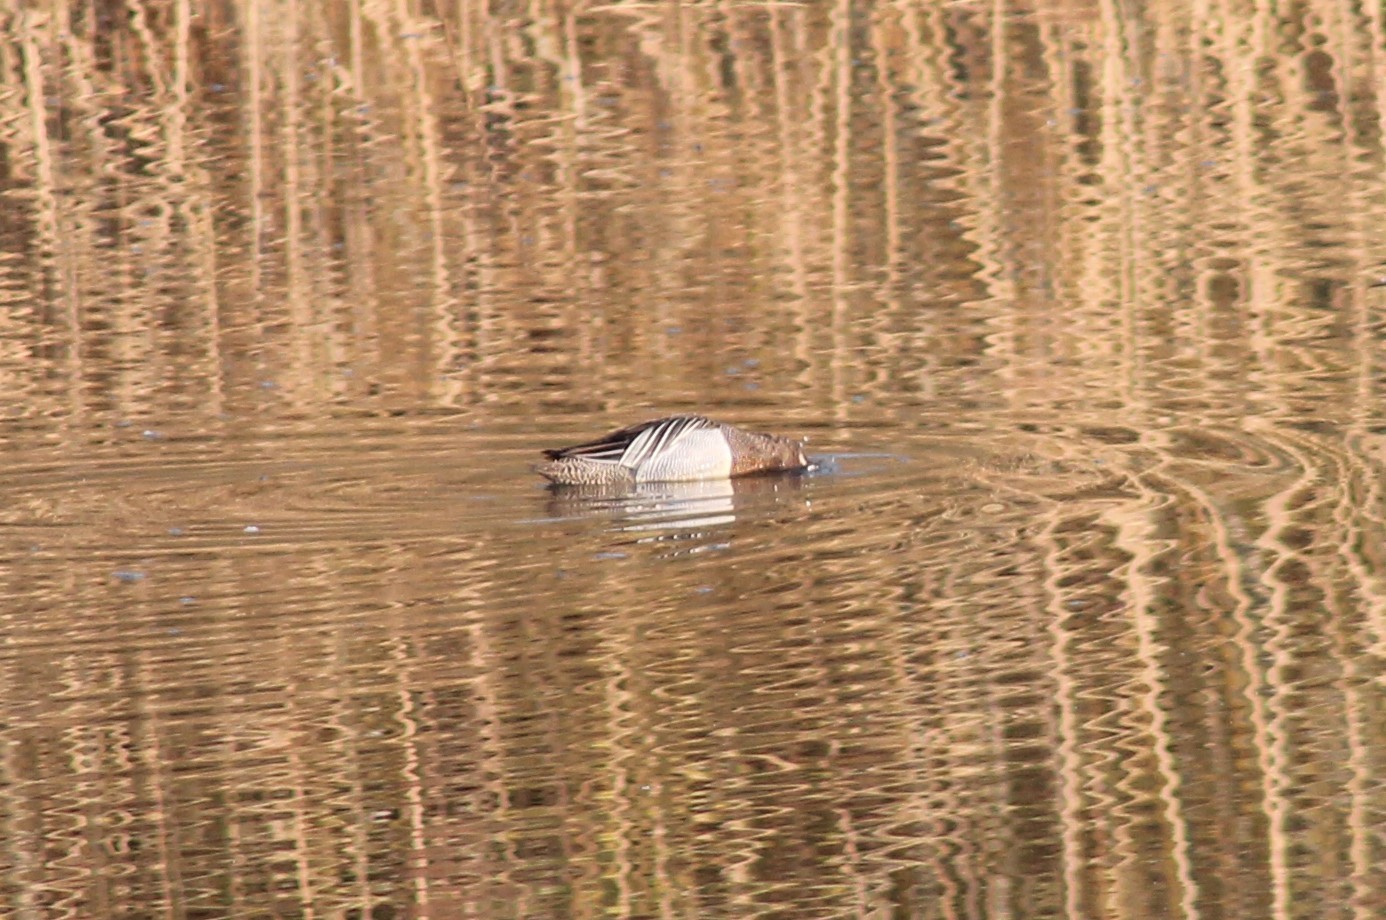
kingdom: Animalia
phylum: Chordata
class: Aves
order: Anseriformes
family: Anatidae
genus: Spatula
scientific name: Spatula querquedula
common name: Garganey
